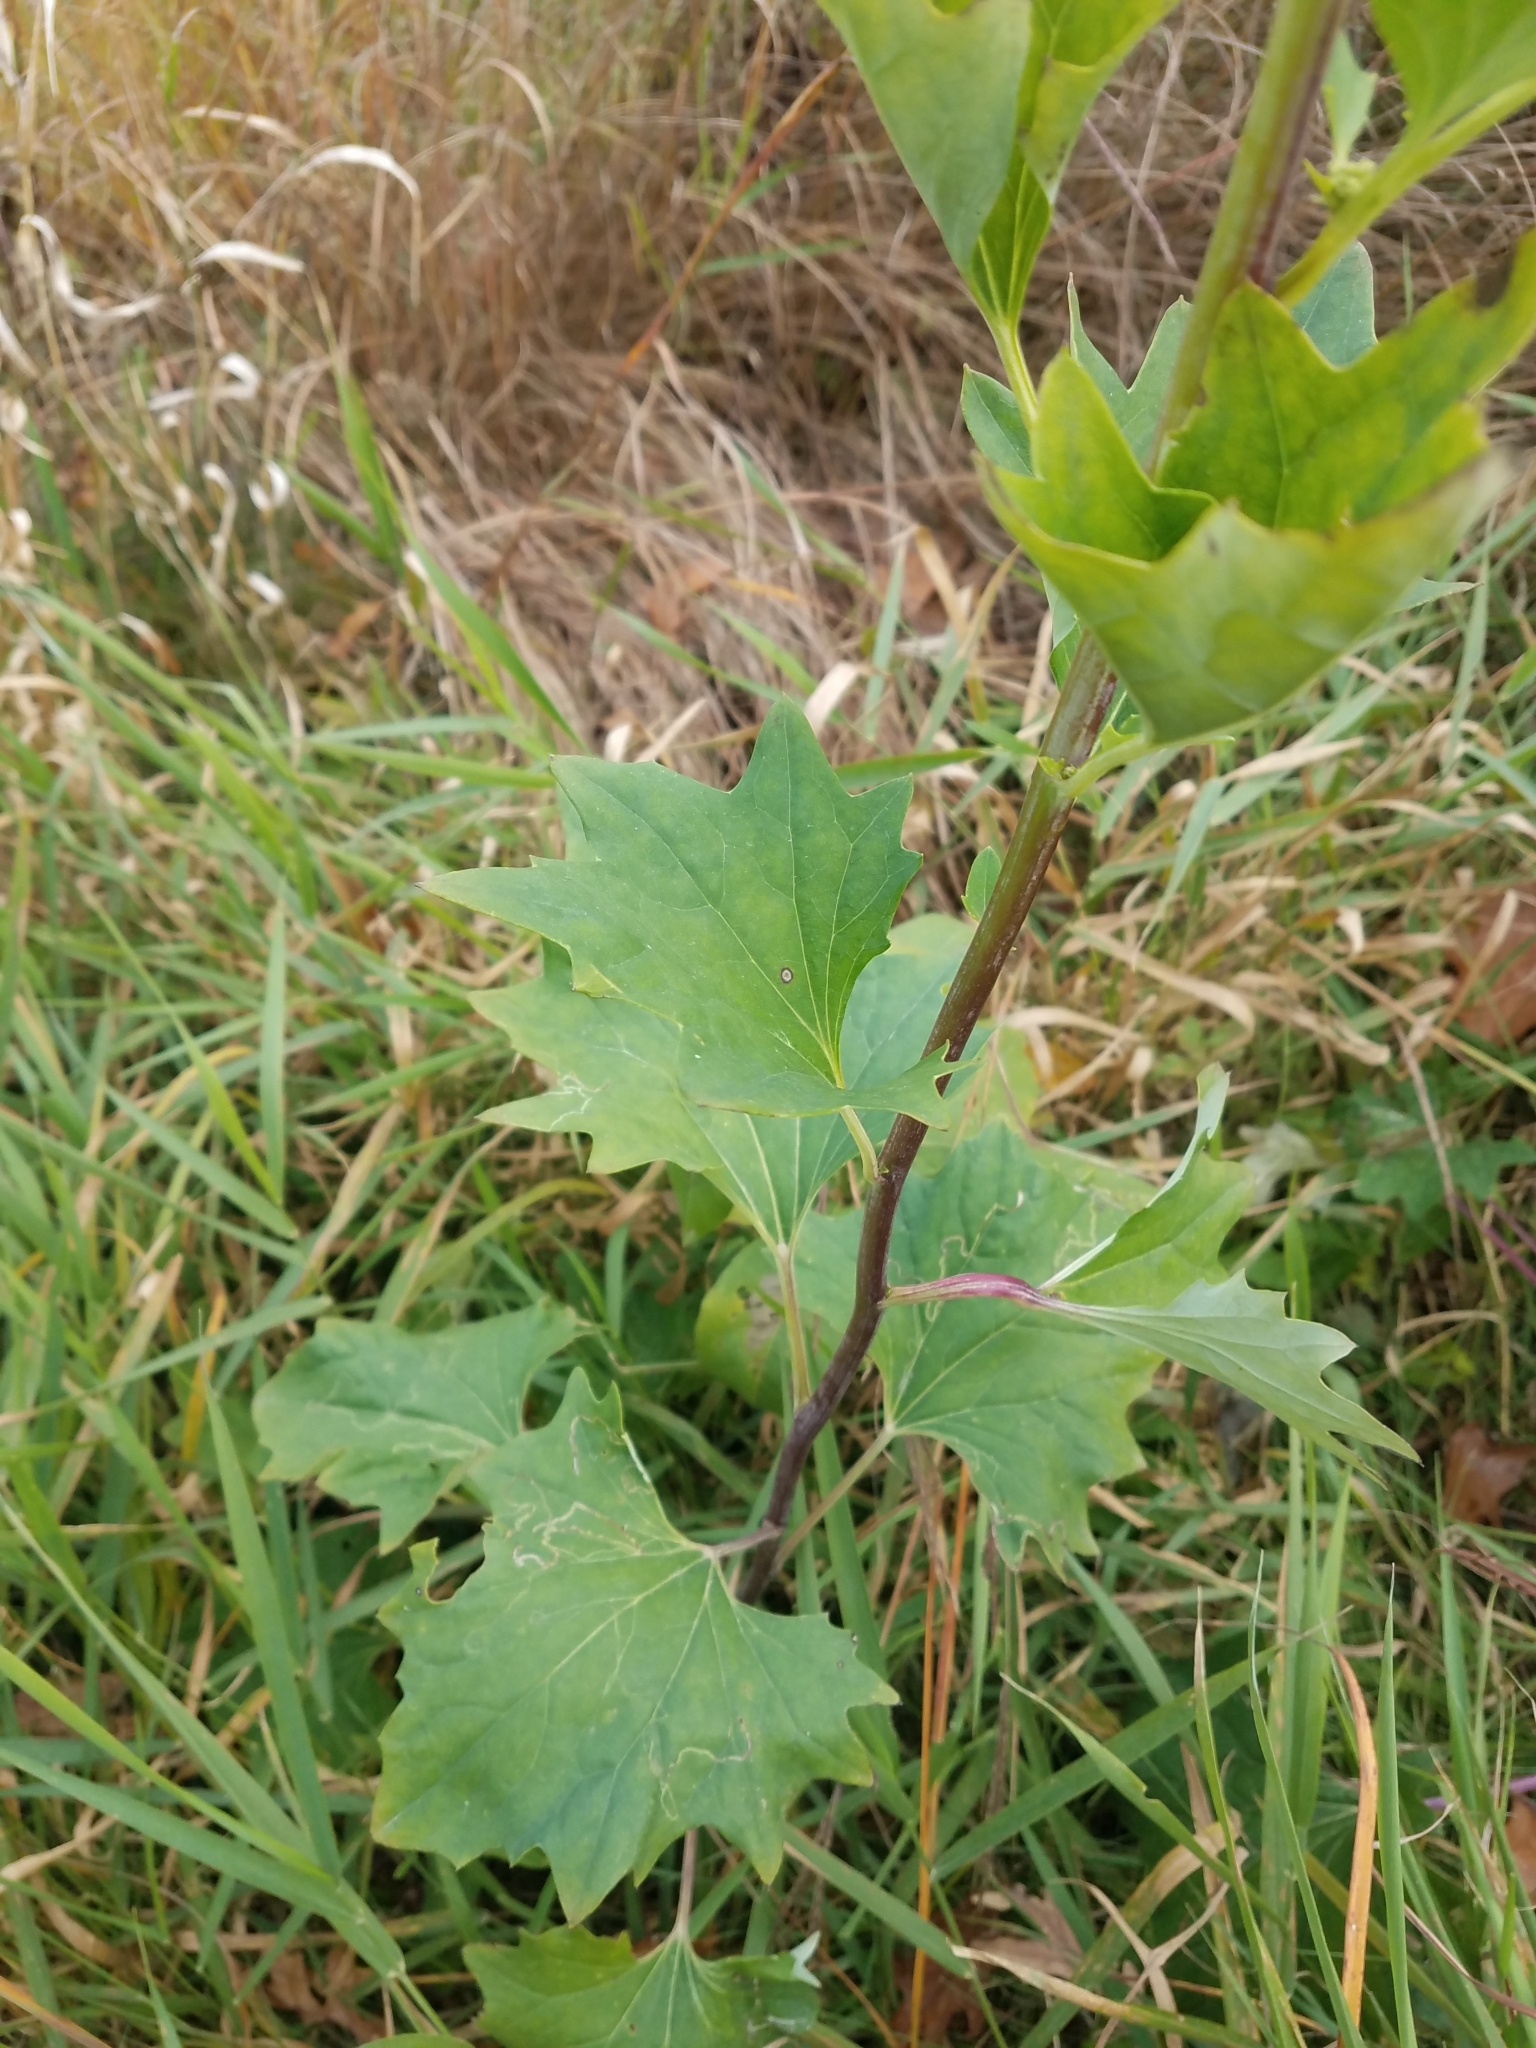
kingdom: Plantae
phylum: Tracheophyta
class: Magnoliopsida
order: Asterales
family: Asteraceae
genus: Arnoglossum
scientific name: Arnoglossum atriplicifolium
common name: Pale indian-plantain
